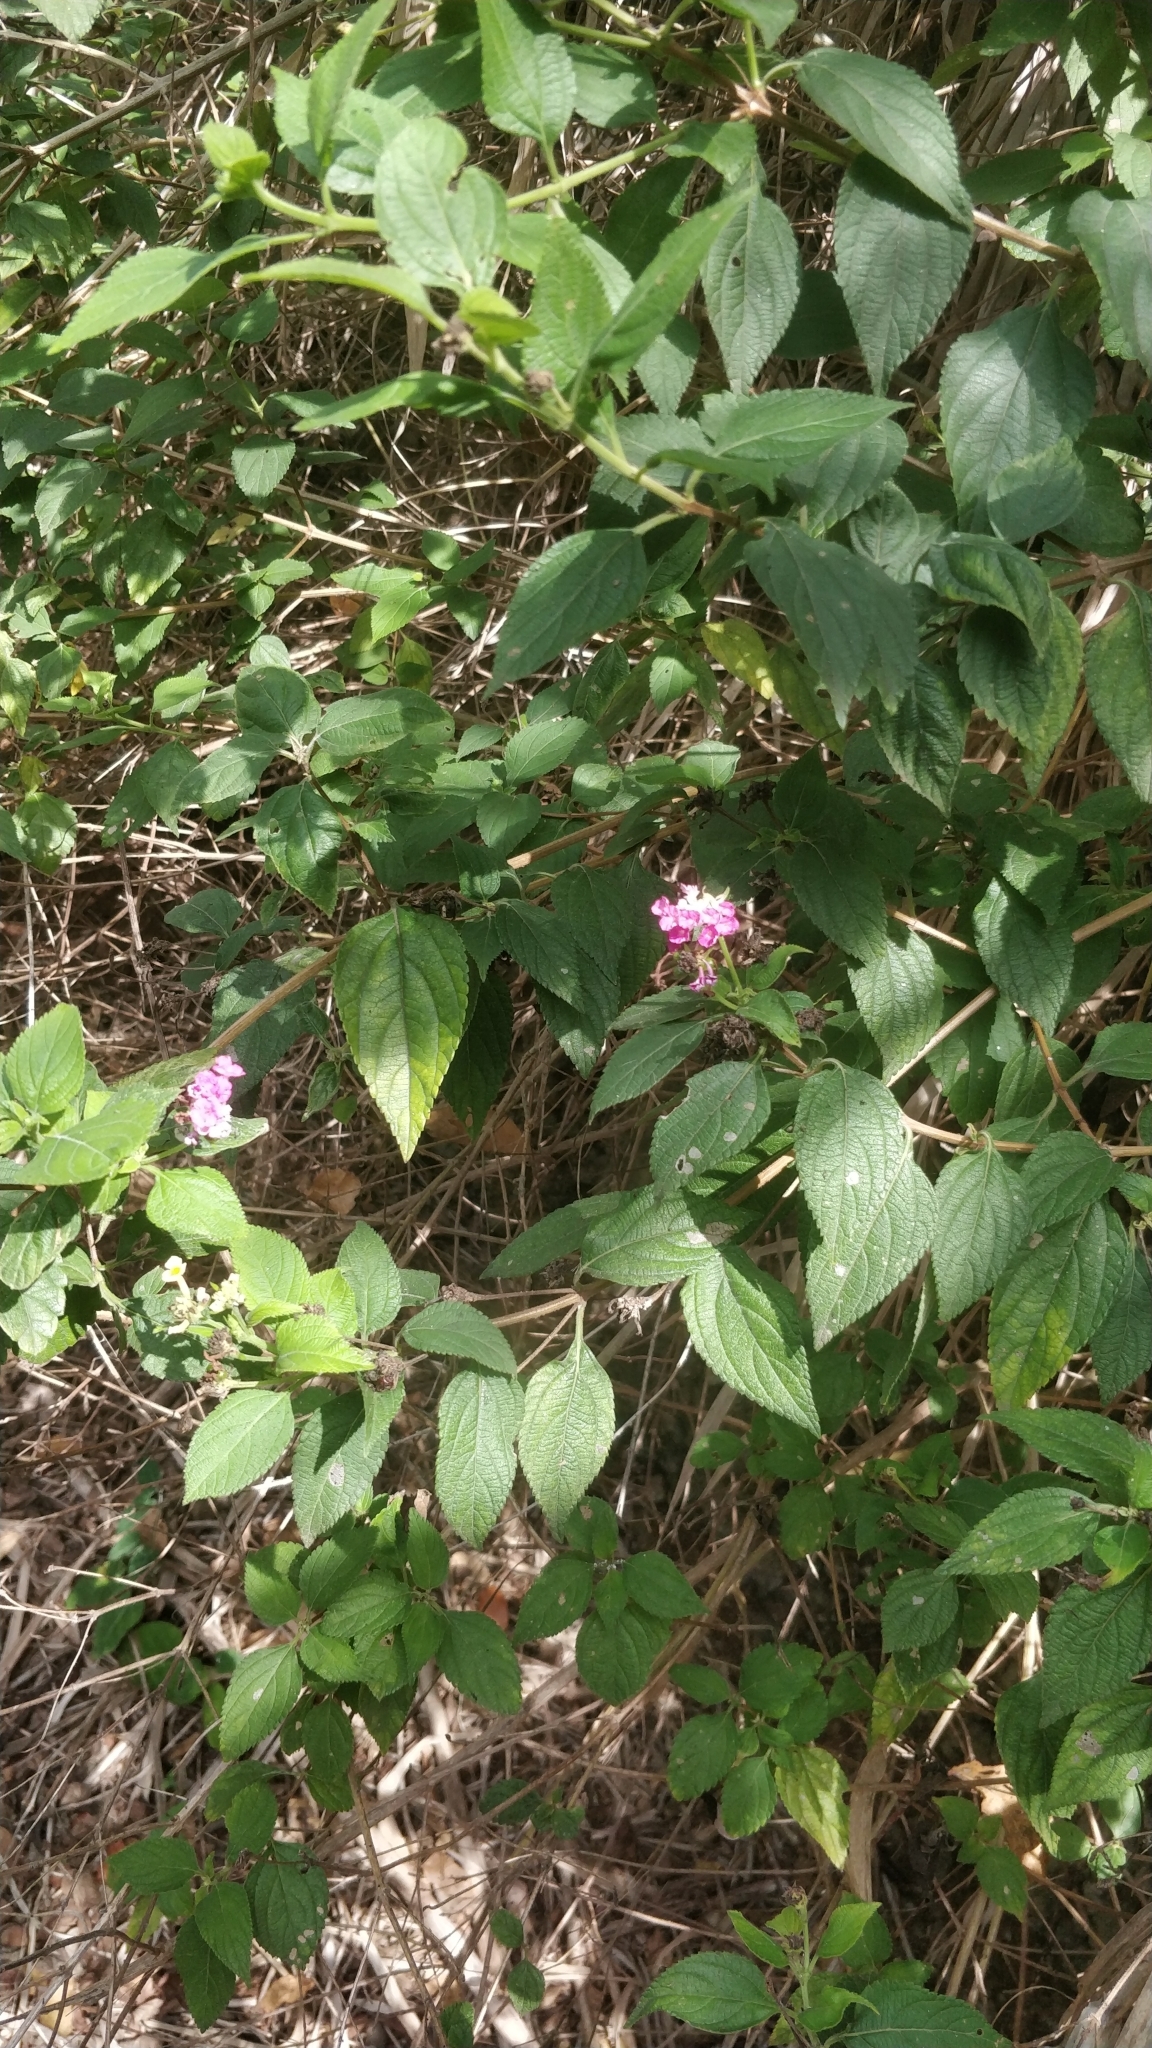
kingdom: Plantae
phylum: Tracheophyta
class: Magnoliopsida
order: Lamiales
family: Verbenaceae
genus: Lantana
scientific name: Lantana camara
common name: Lantana
